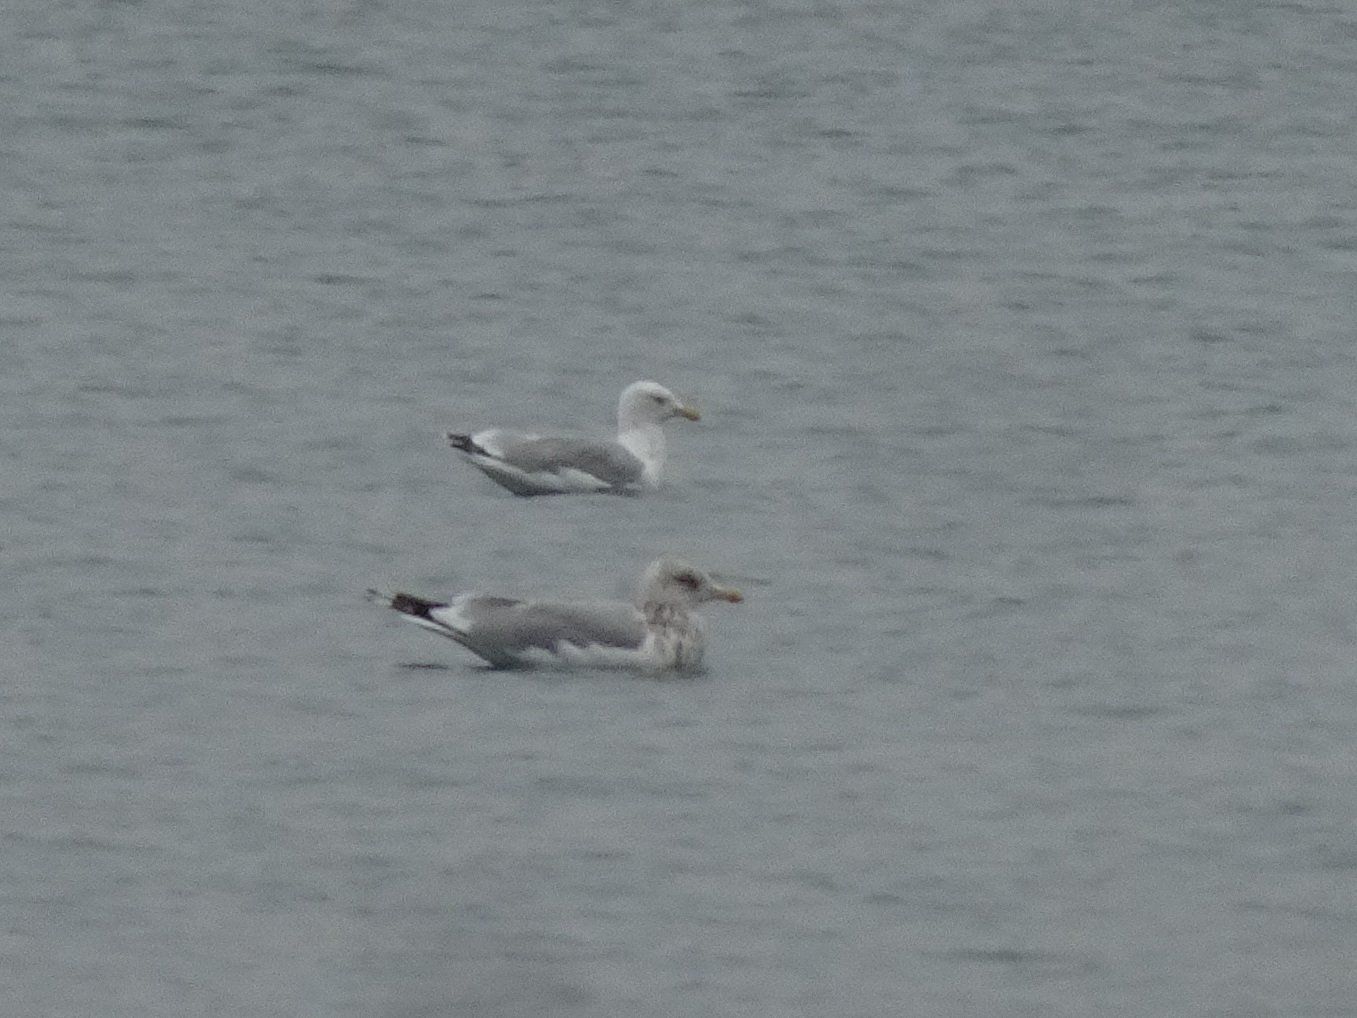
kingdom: Animalia
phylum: Chordata
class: Aves
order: Charadriiformes
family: Laridae
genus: Larus
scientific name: Larus argentatus
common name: Herring gull
